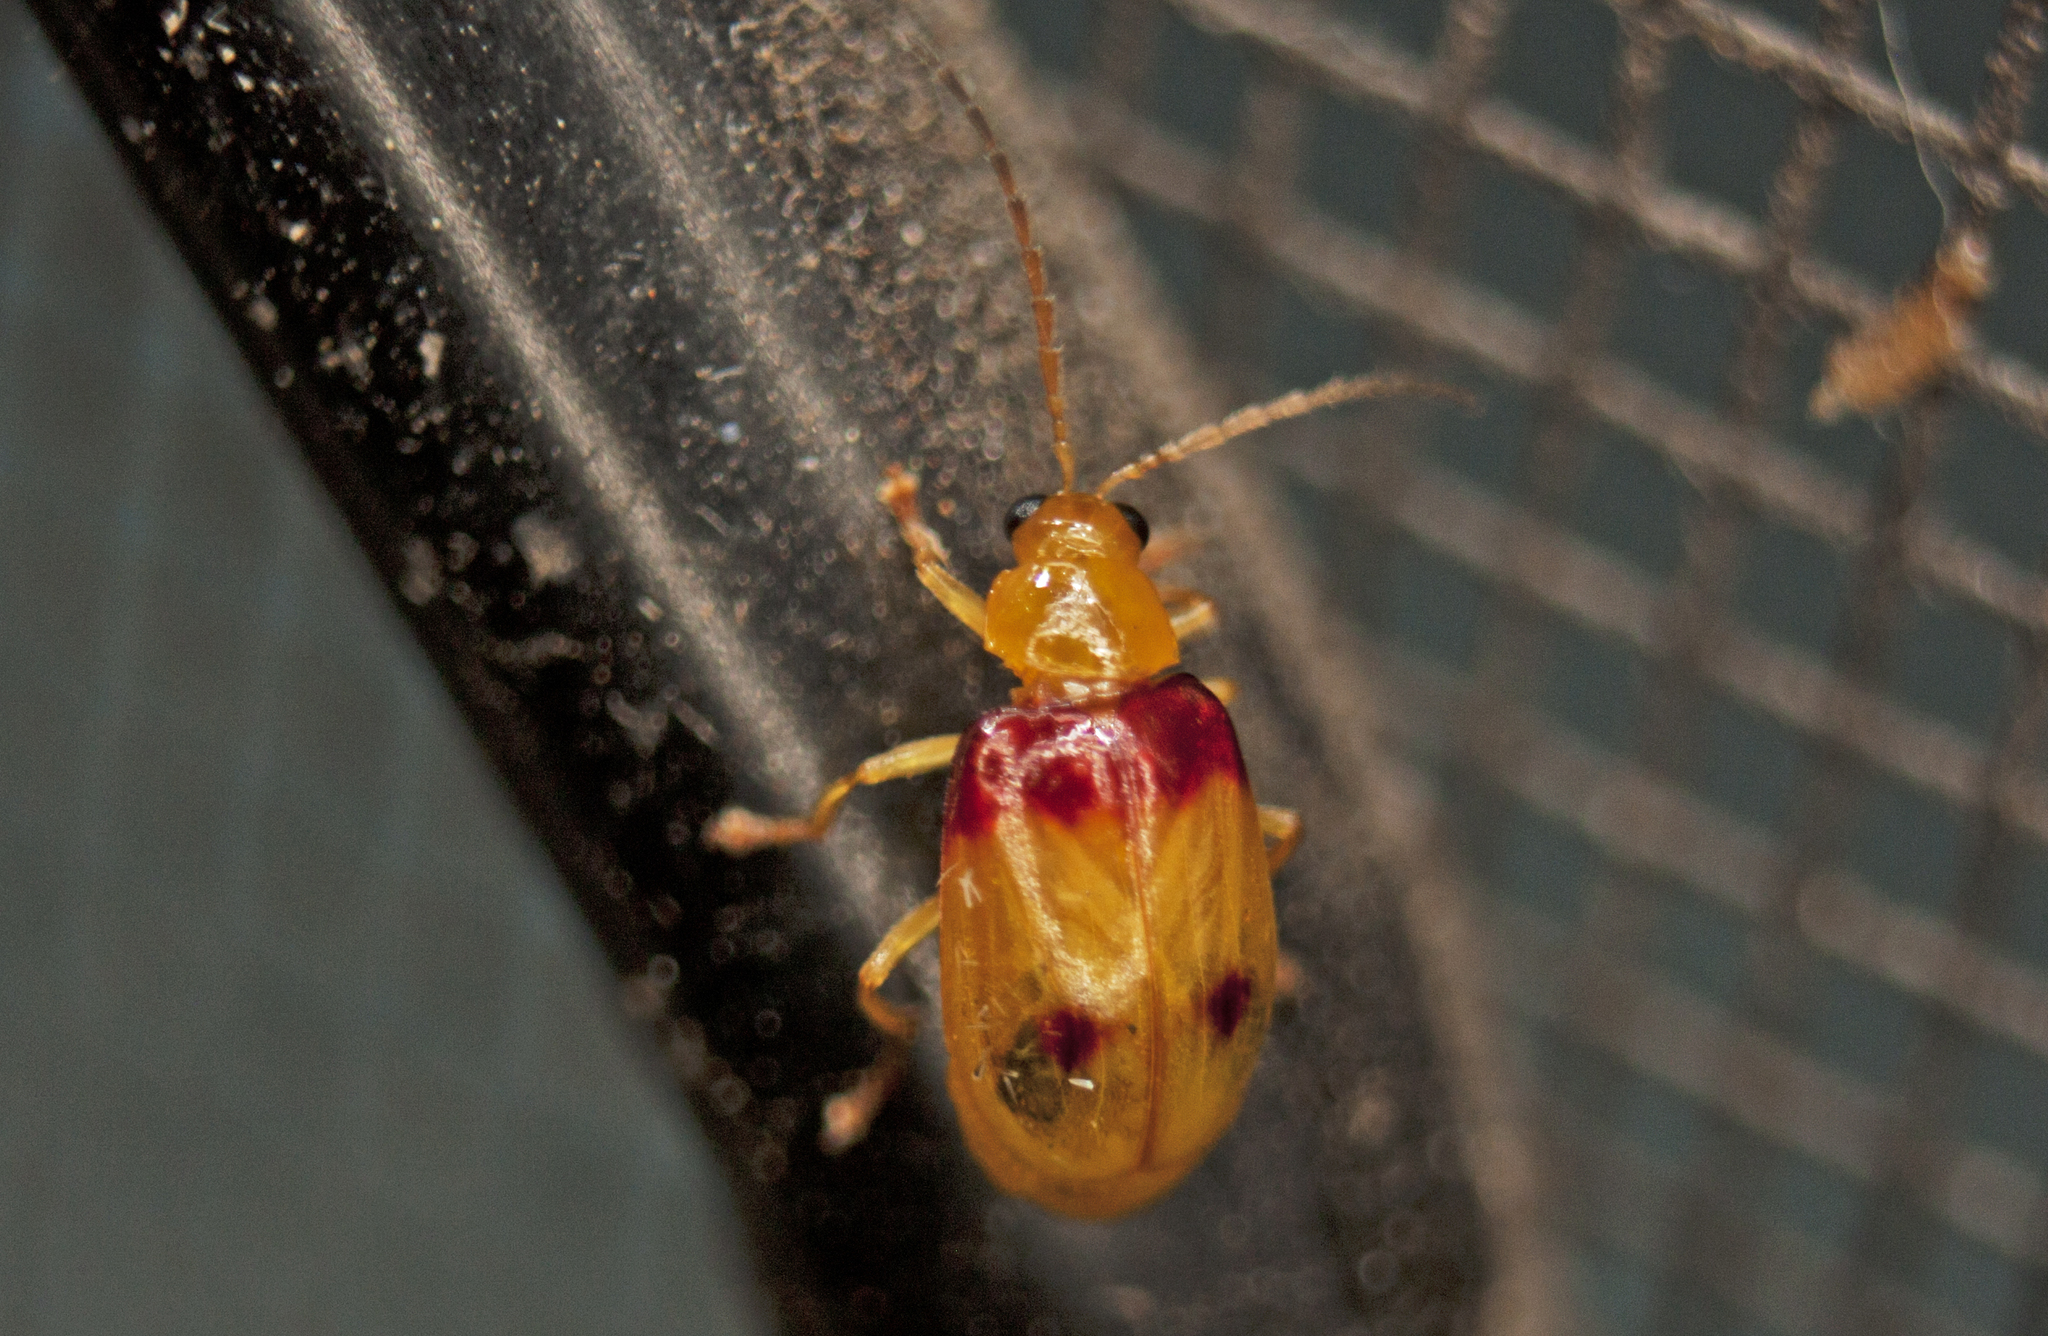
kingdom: Animalia
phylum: Arthropoda
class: Insecta
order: Coleoptera
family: Chrysomelidae
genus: Monolepta
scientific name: Monolepta
